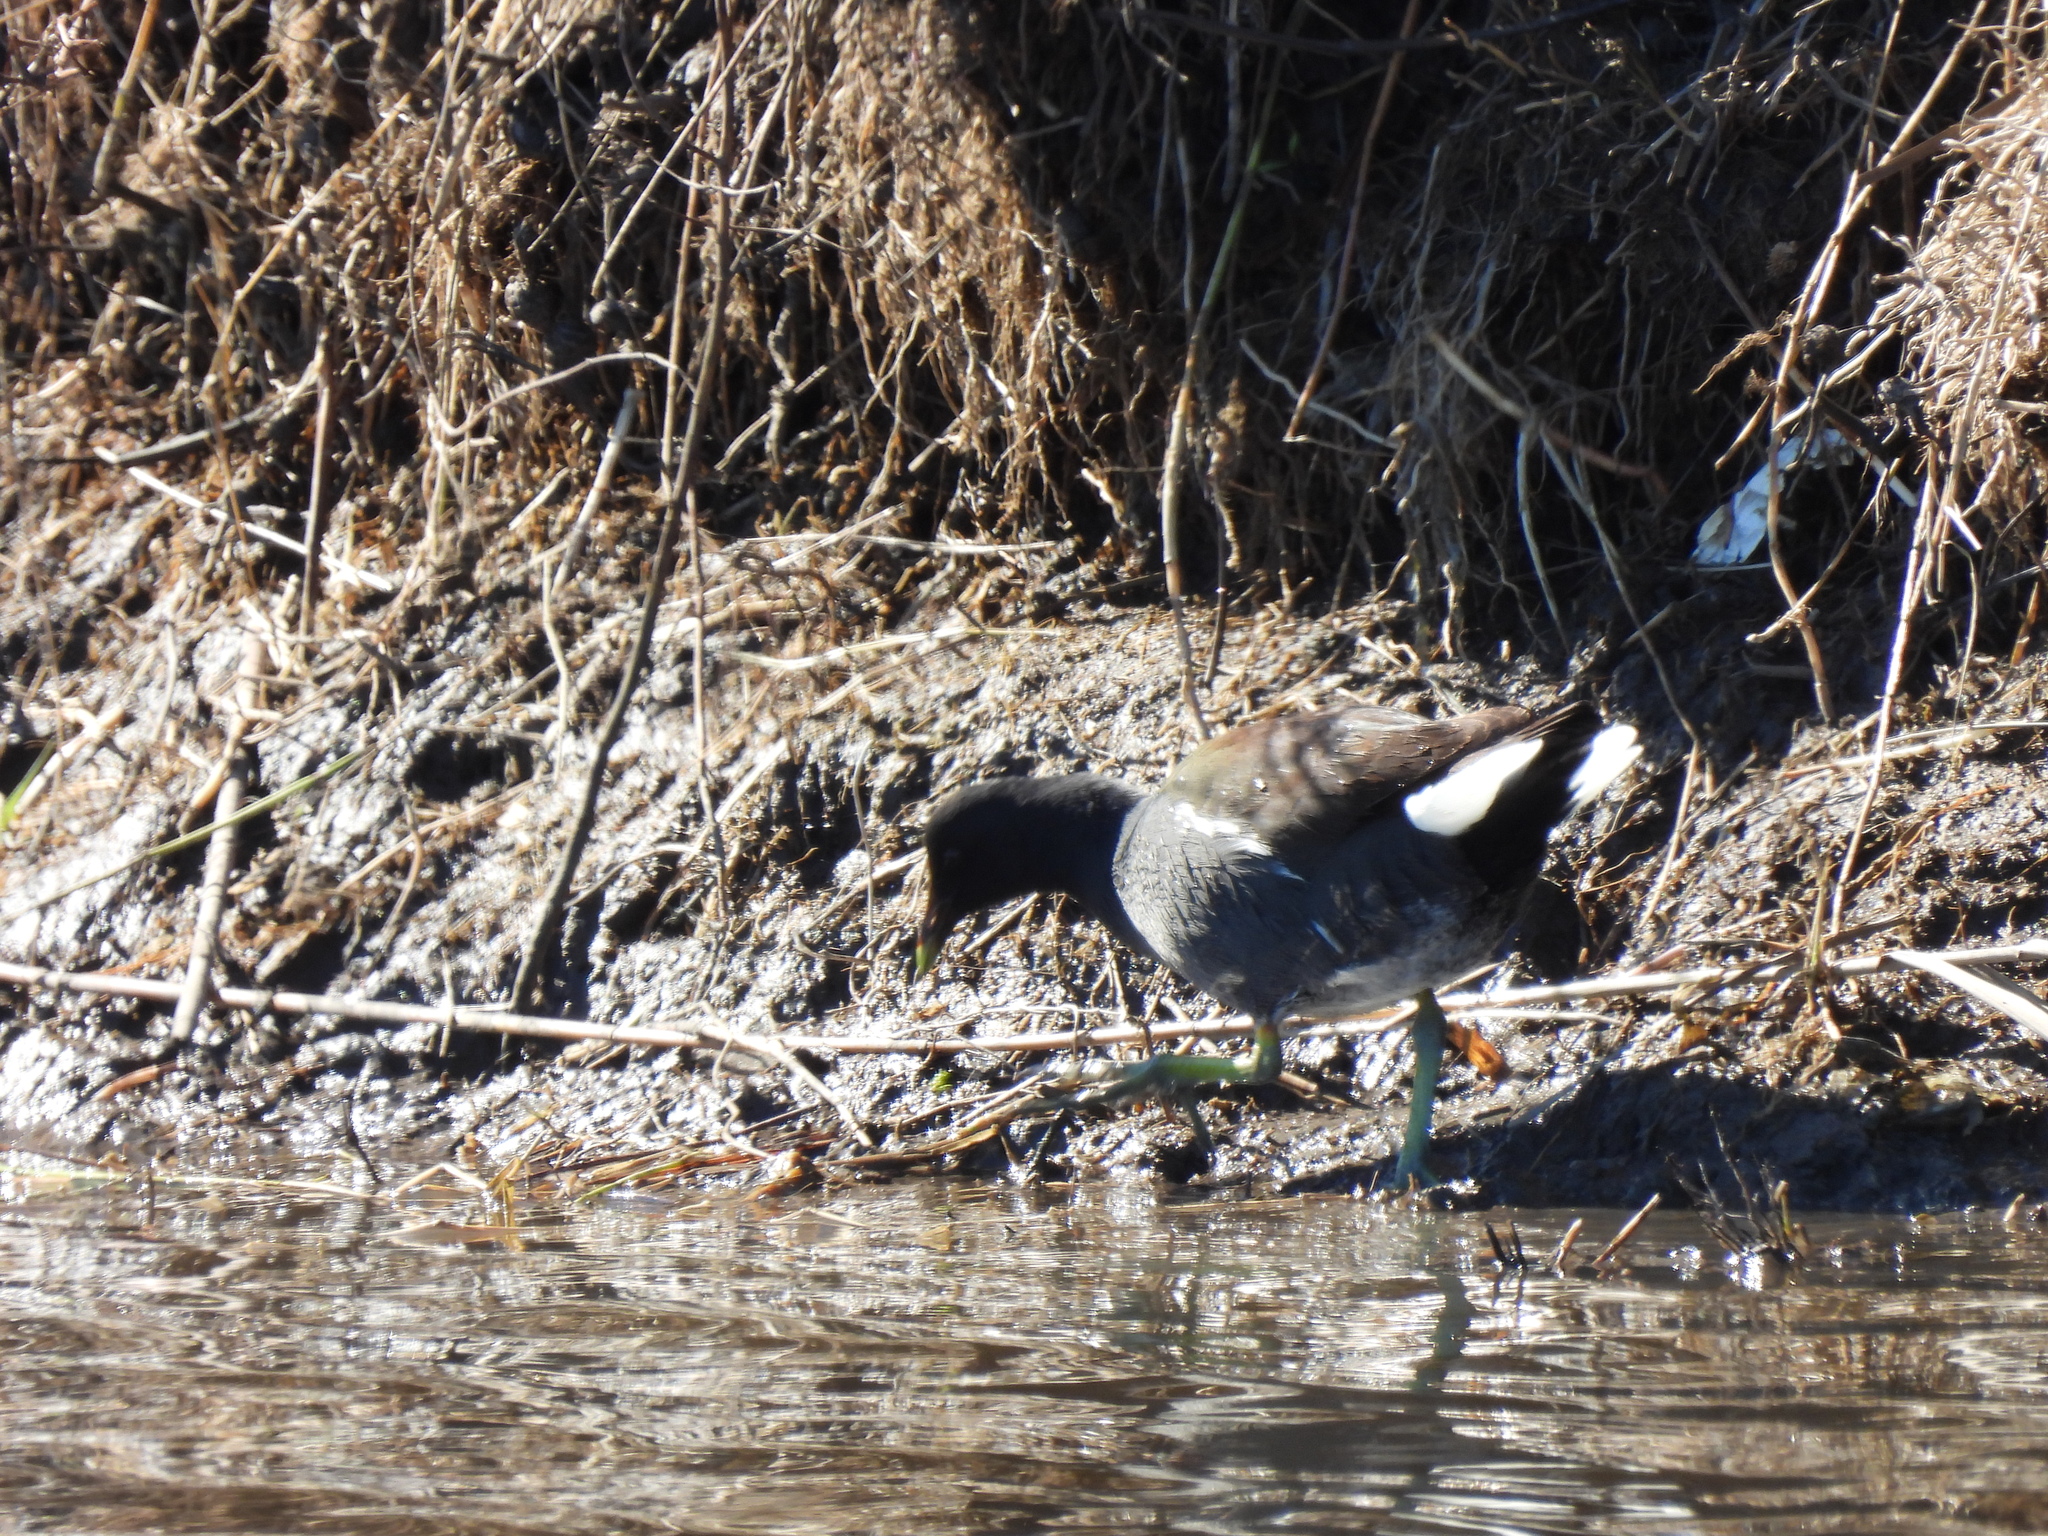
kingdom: Animalia
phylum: Chordata
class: Aves
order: Gruiformes
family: Rallidae
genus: Gallinula
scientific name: Gallinula chloropus
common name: Common moorhen
